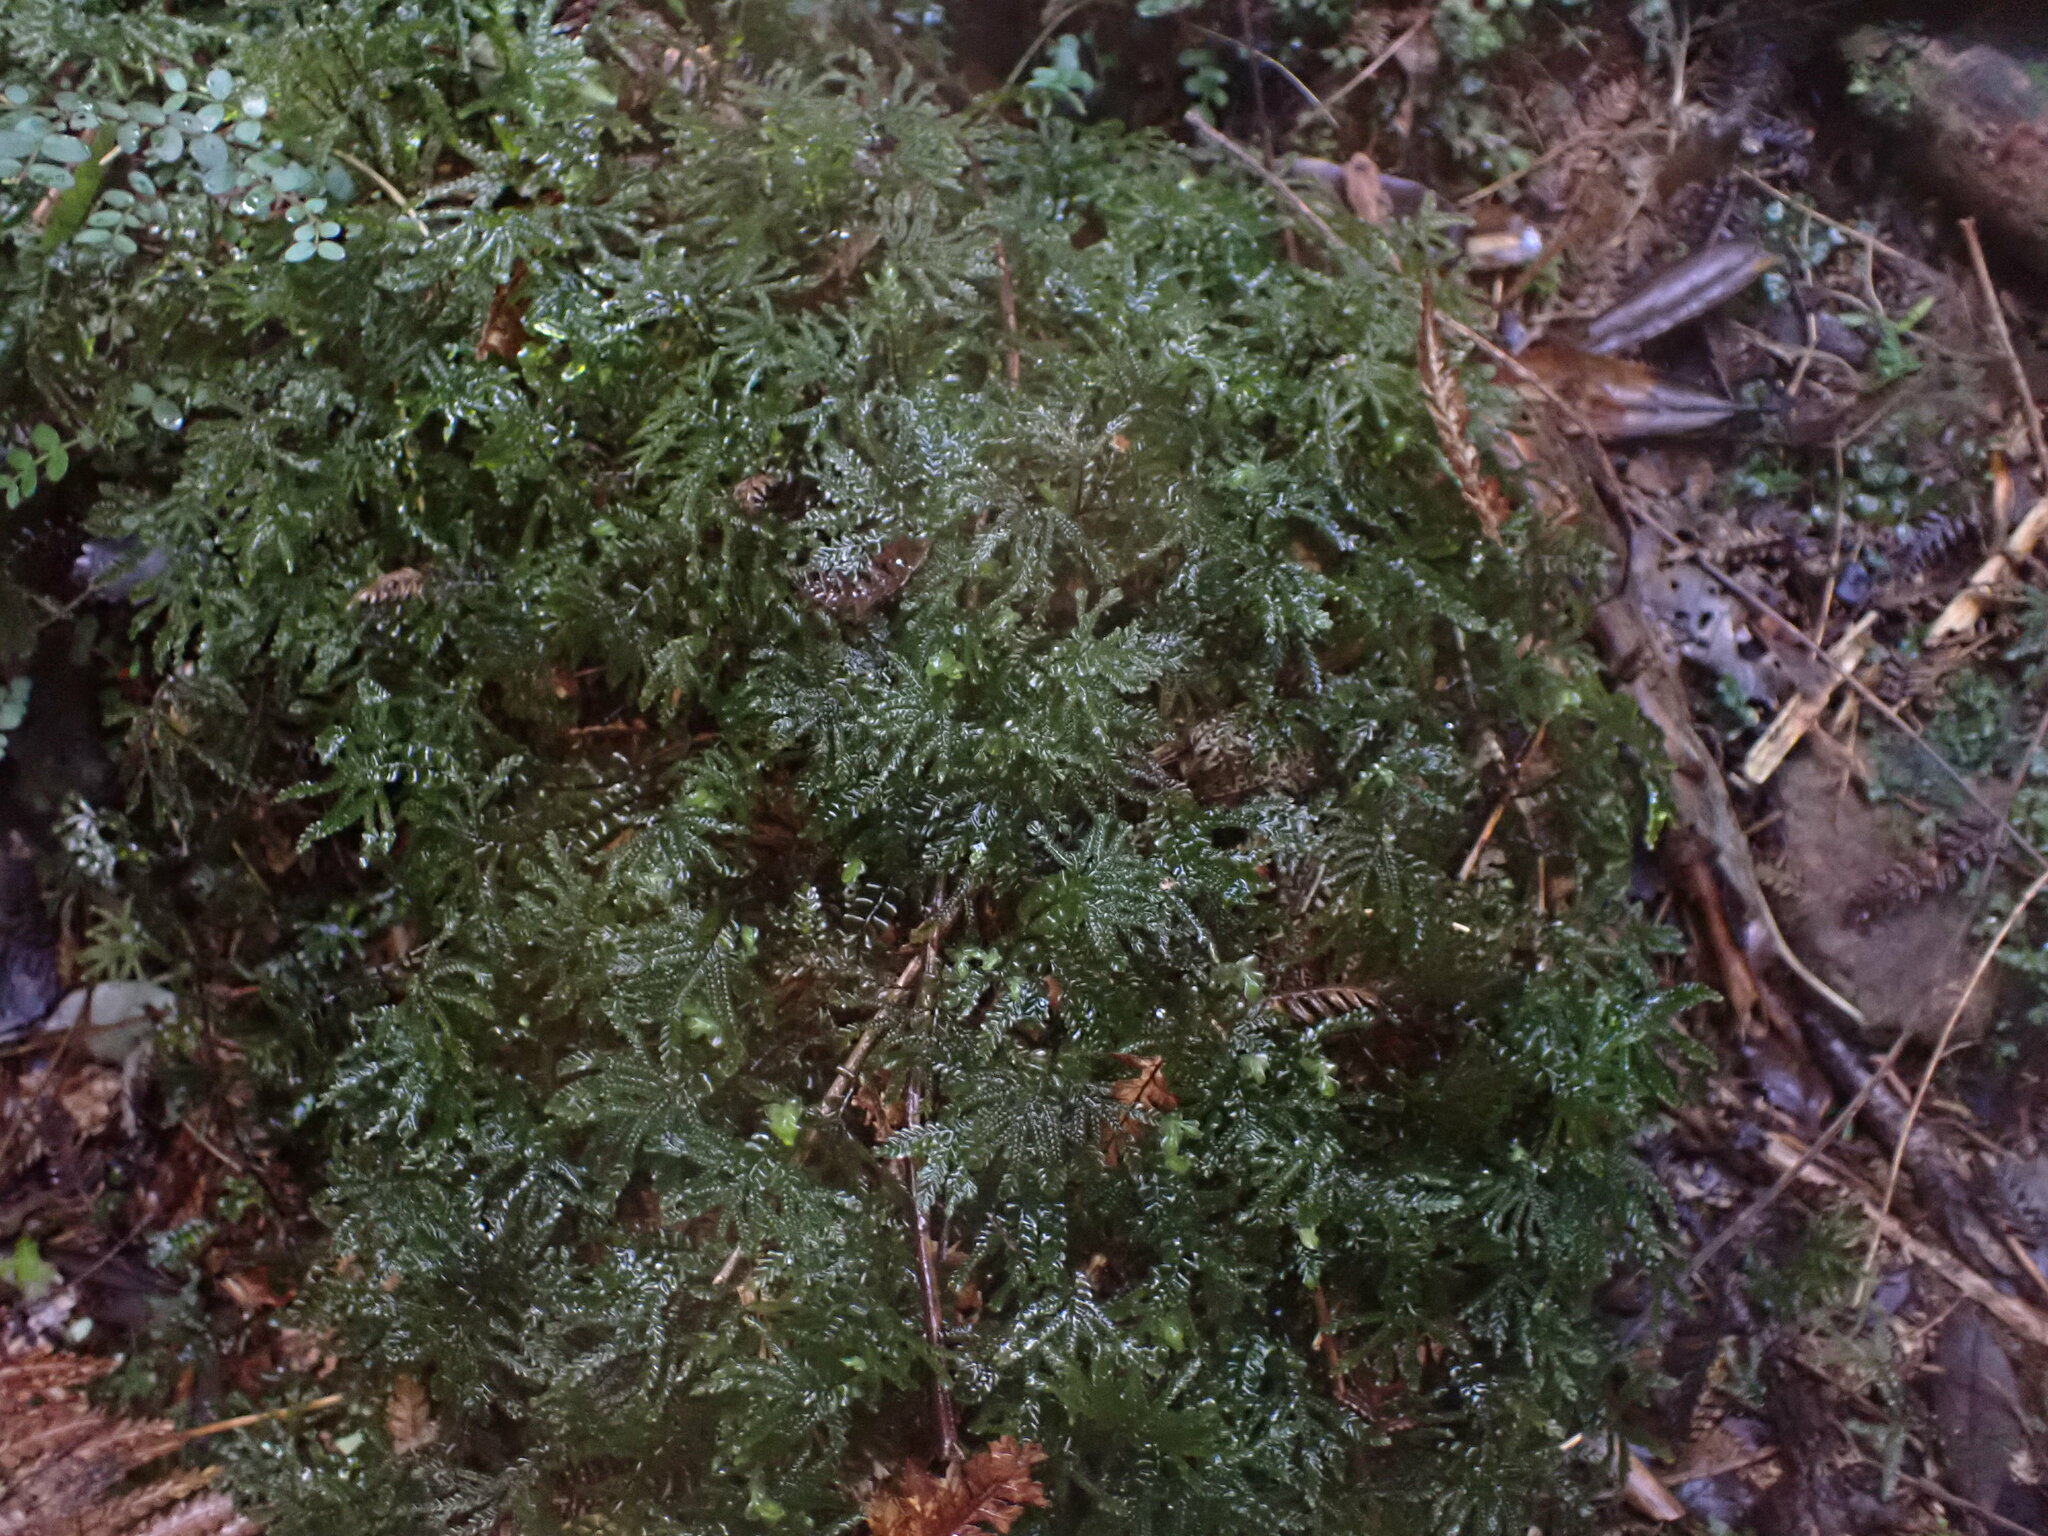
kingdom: Plantae
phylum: Marchantiophyta
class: Jungermanniopsida
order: Jungermanniales
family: Plagiochilaceae
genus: Plagiochila
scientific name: Plagiochila gigantea
